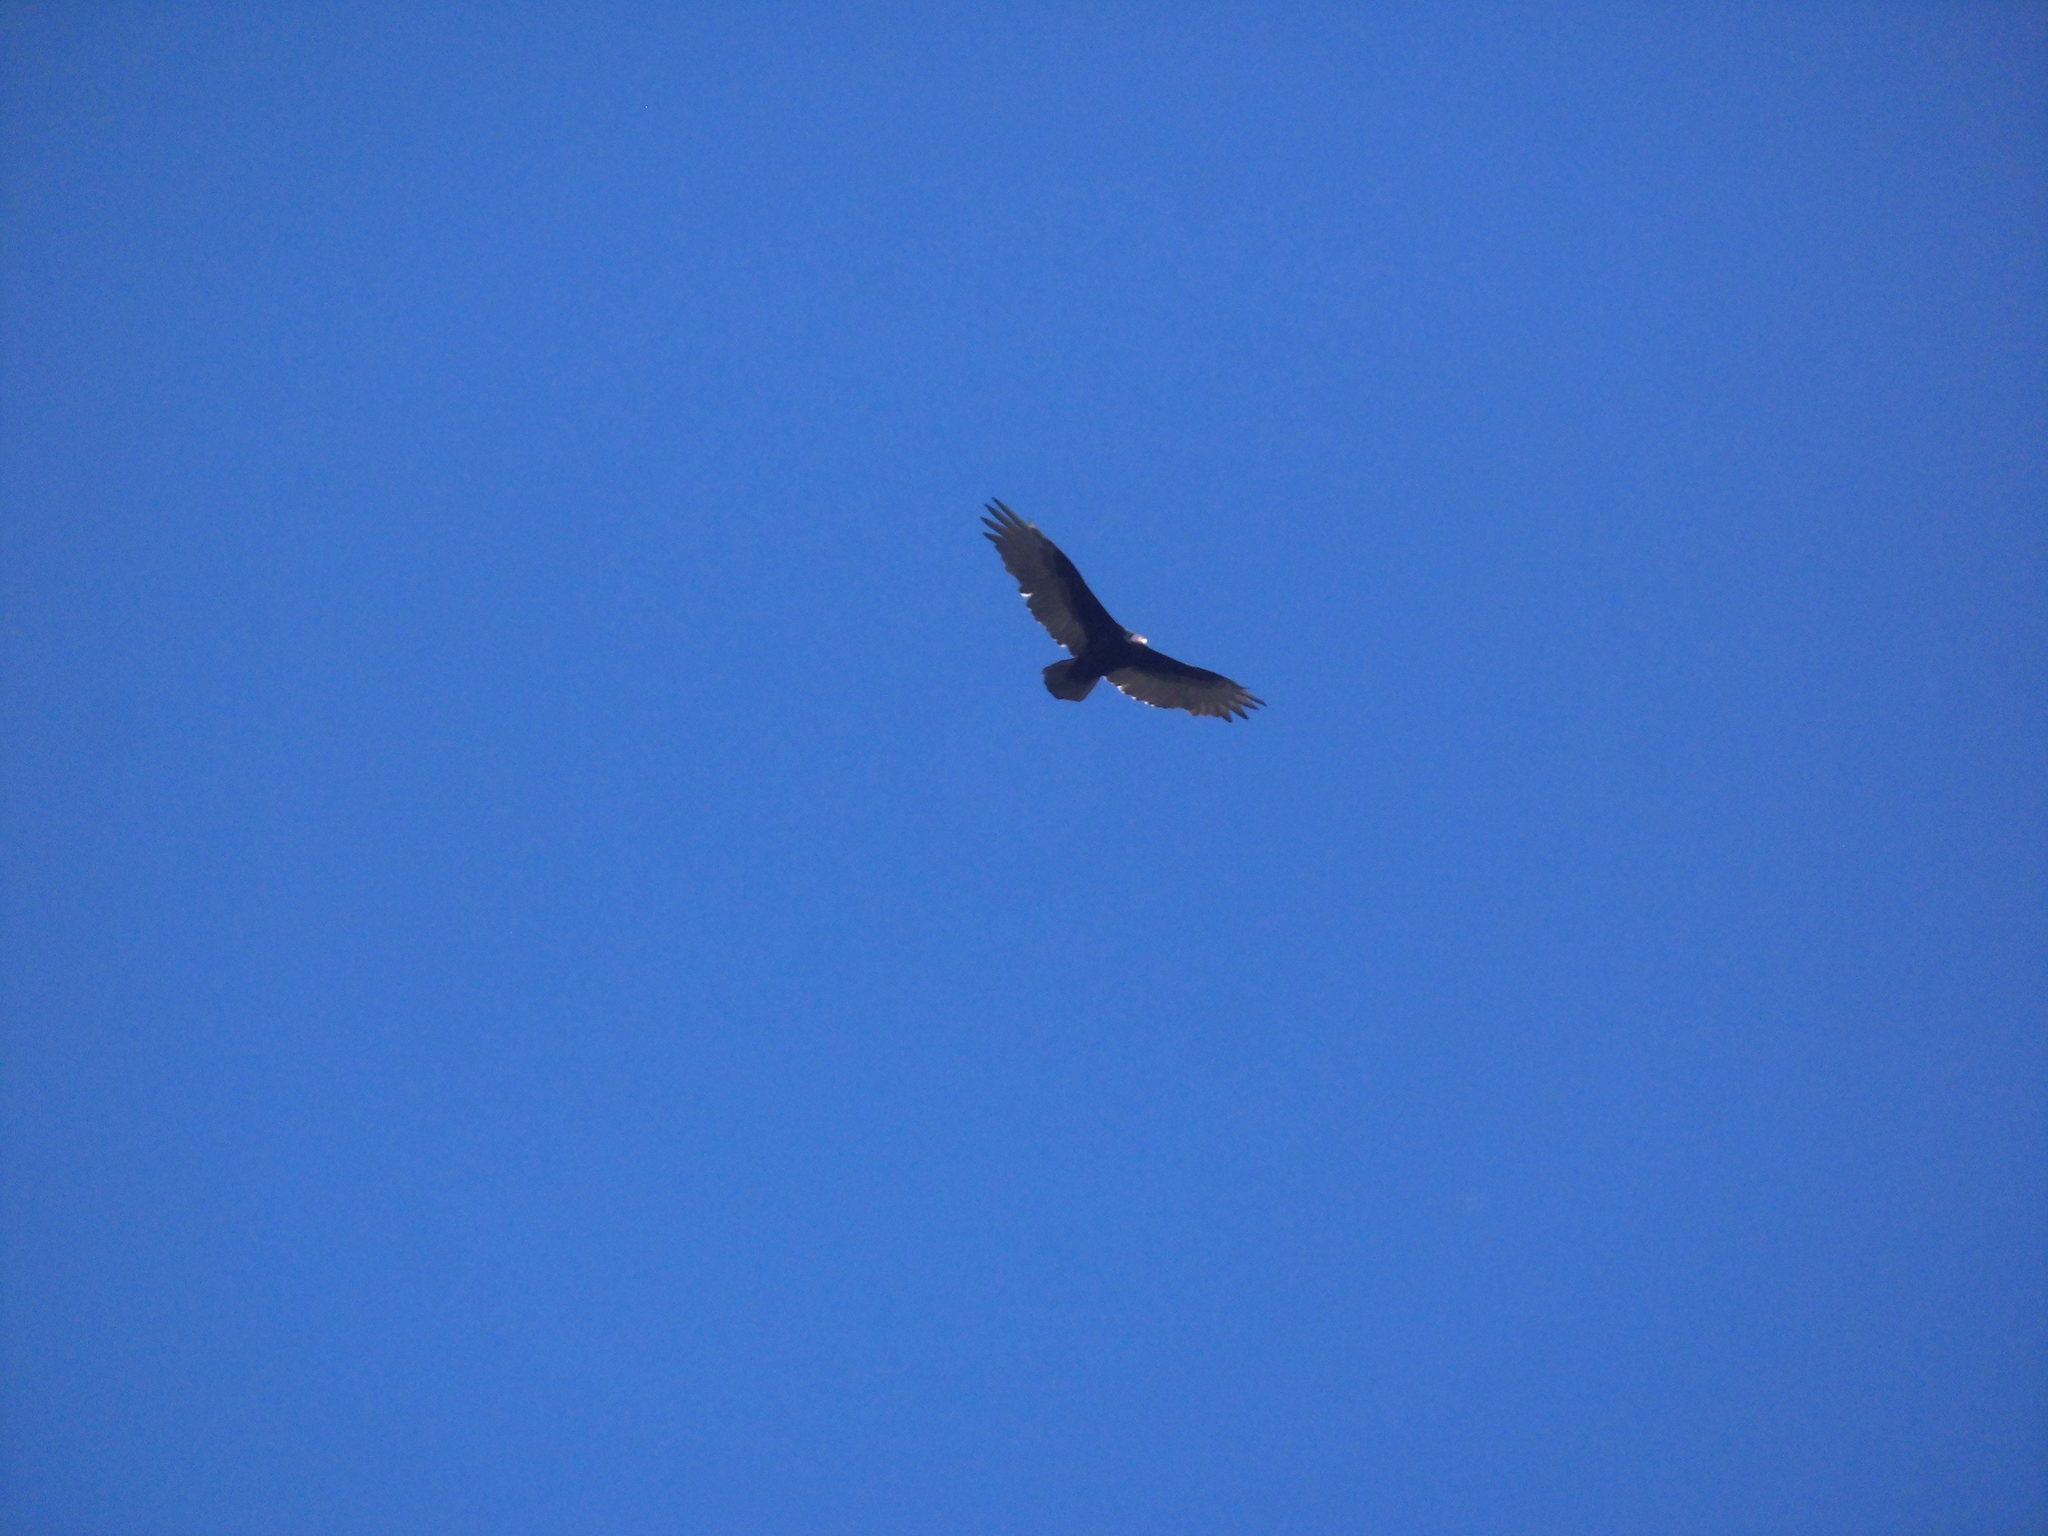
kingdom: Animalia
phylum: Chordata
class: Aves
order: Accipitriformes
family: Cathartidae
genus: Cathartes
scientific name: Cathartes aura
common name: Turkey vulture
